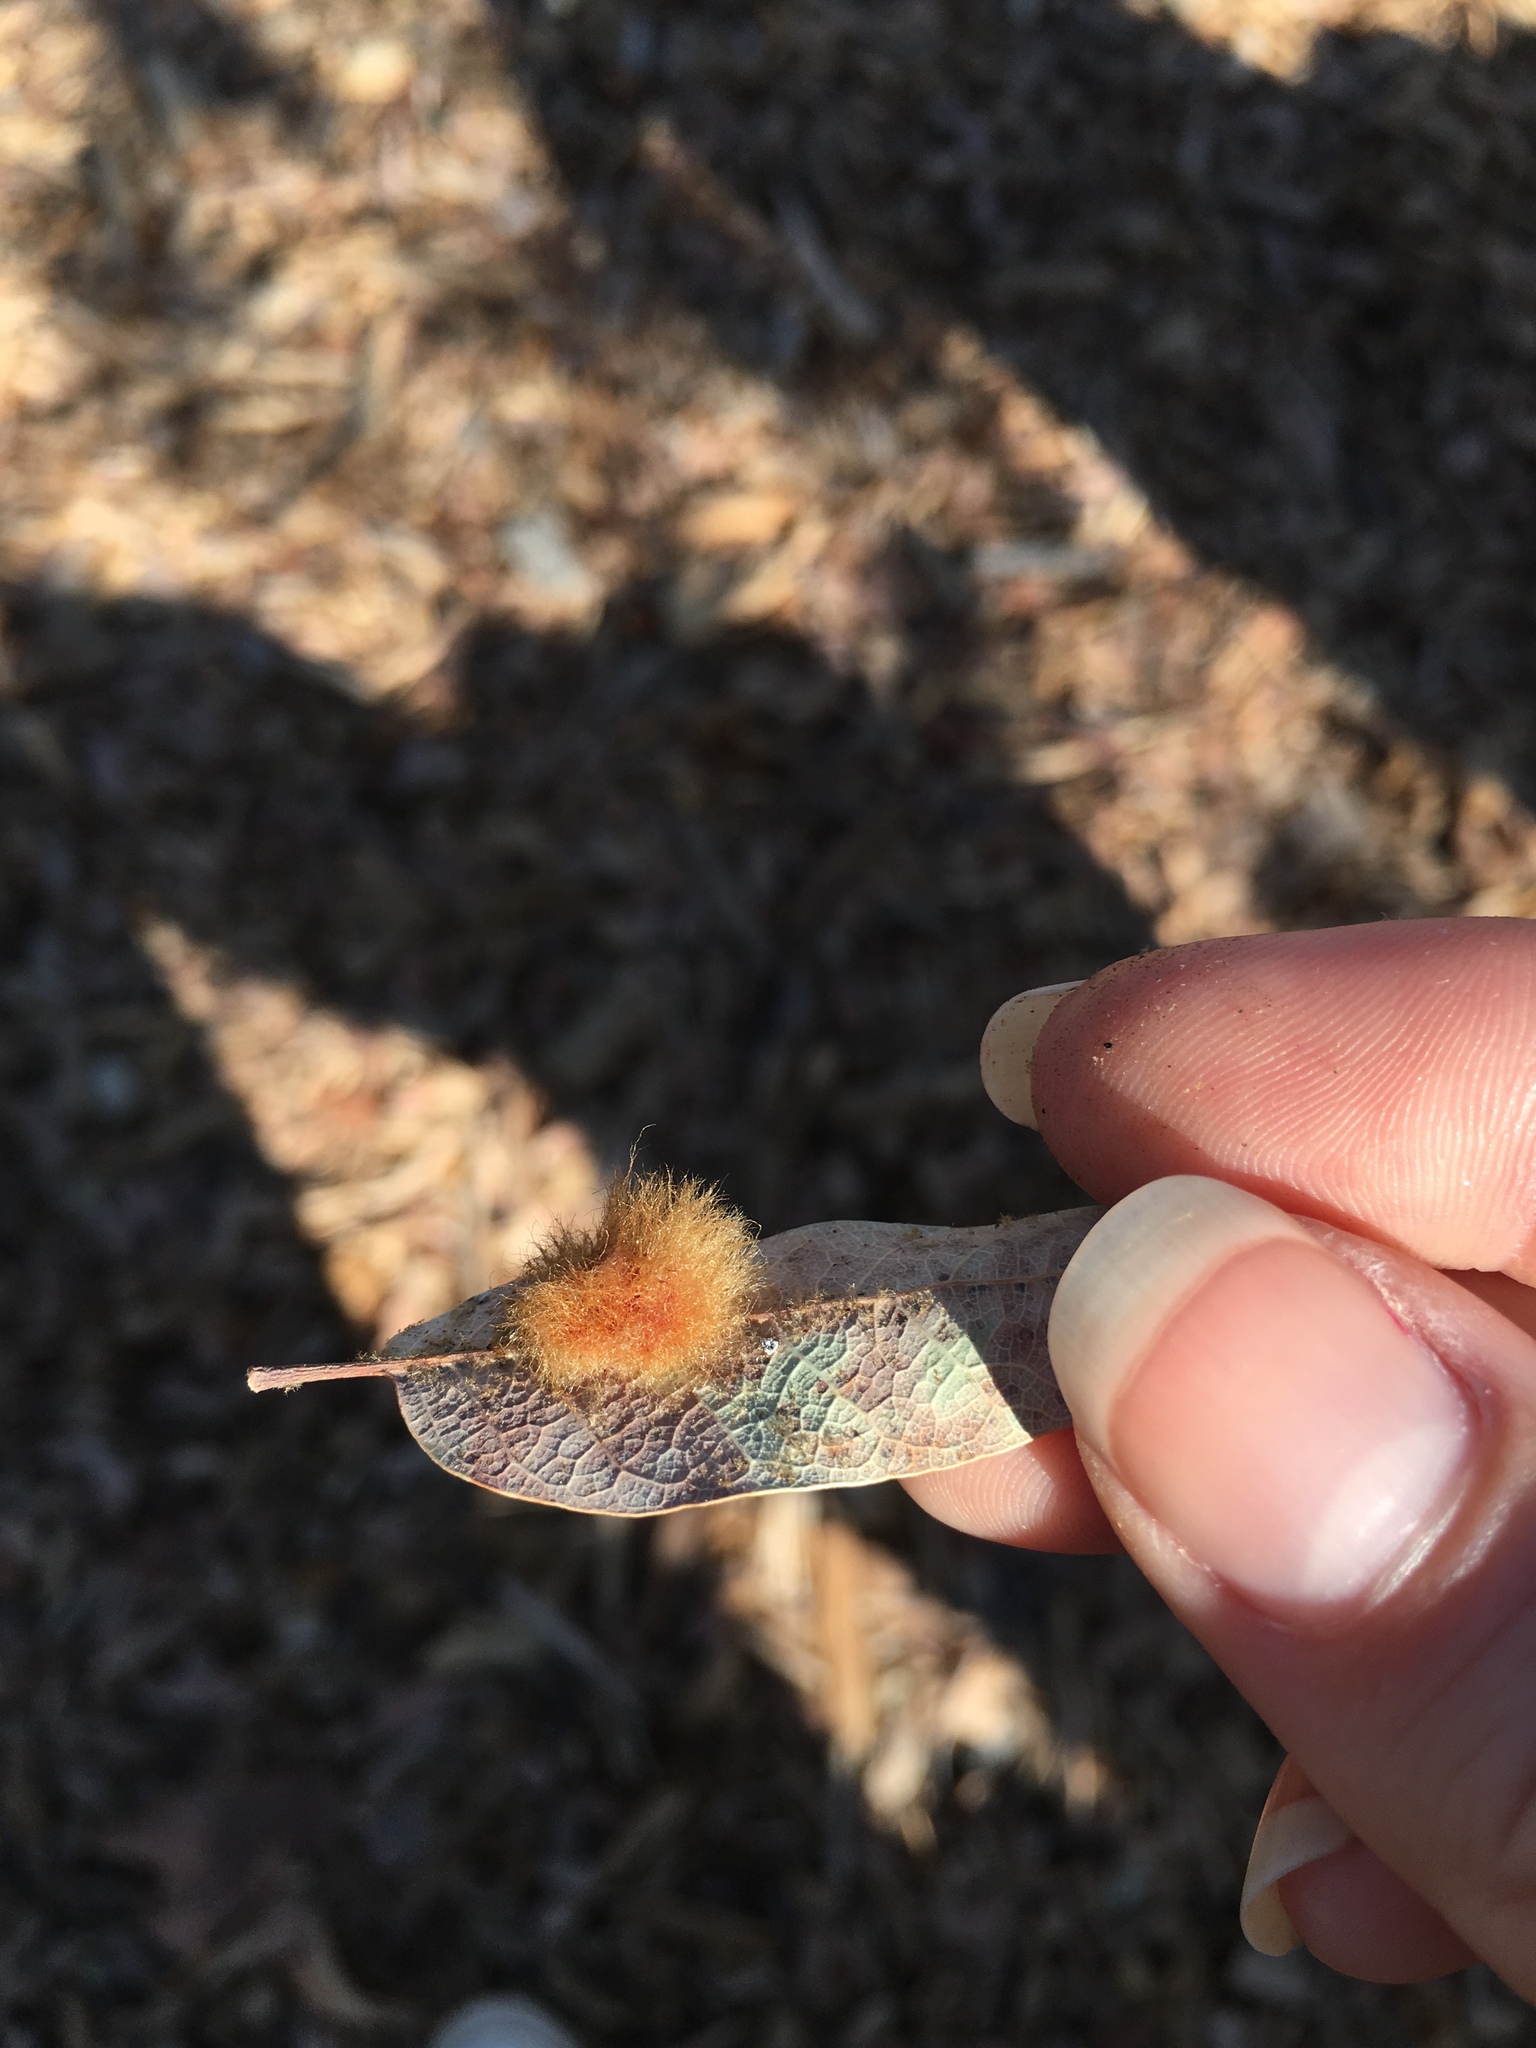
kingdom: Animalia
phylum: Arthropoda
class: Insecta
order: Hymenoptera
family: Cynipidae
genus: Andricus
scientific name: Andricus Druon quercuslanigerum
